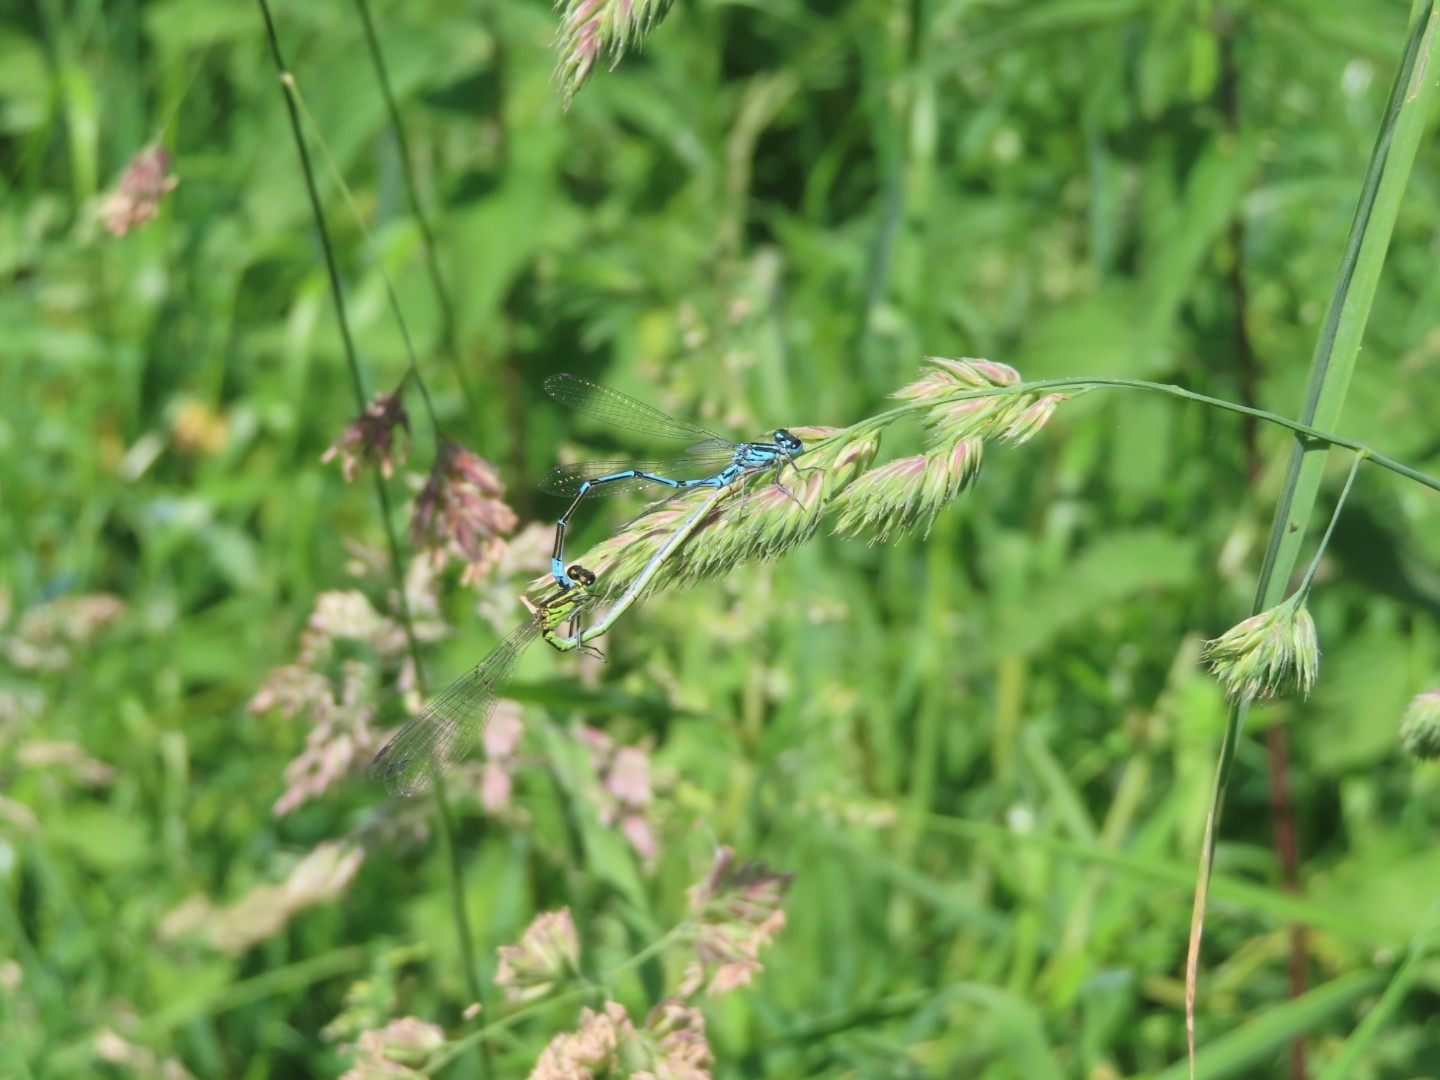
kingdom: Animalia
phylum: Arthropoda
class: Insecta
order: Odonata
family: Coenagrionidae
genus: Coenagrion
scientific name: Coenagrion puella
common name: Azure damselfly
